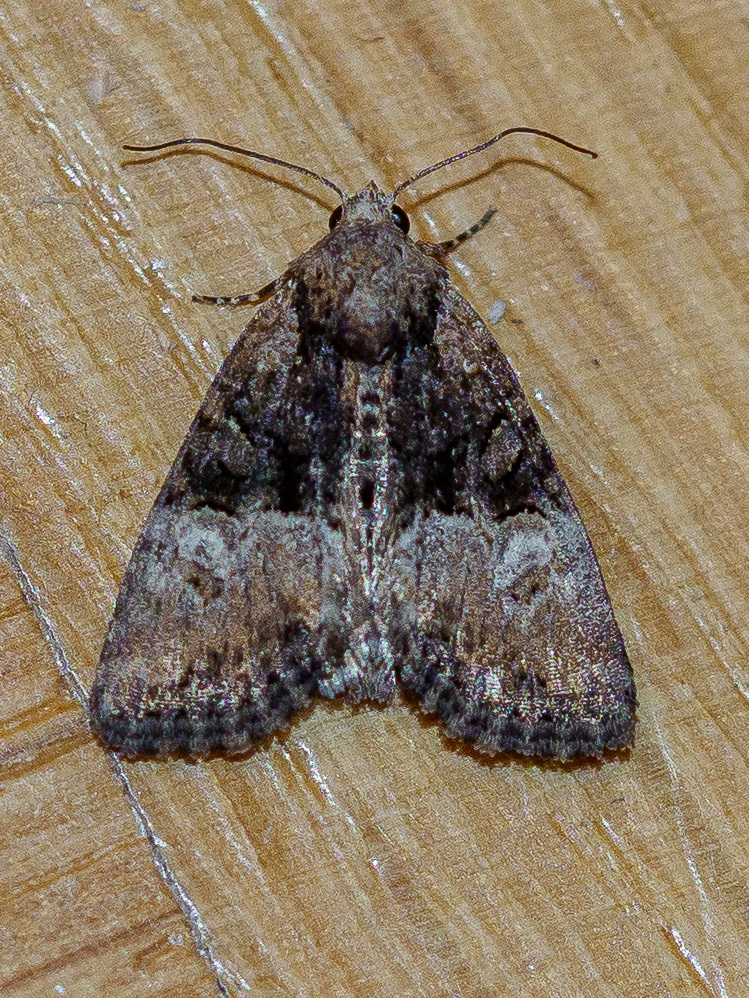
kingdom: Animalia
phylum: Arthropoda
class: Insecta
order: Lepidoptera
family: Noctuidae
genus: Mesoligia
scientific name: Mesoligia furuncula
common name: Cloaked minor
